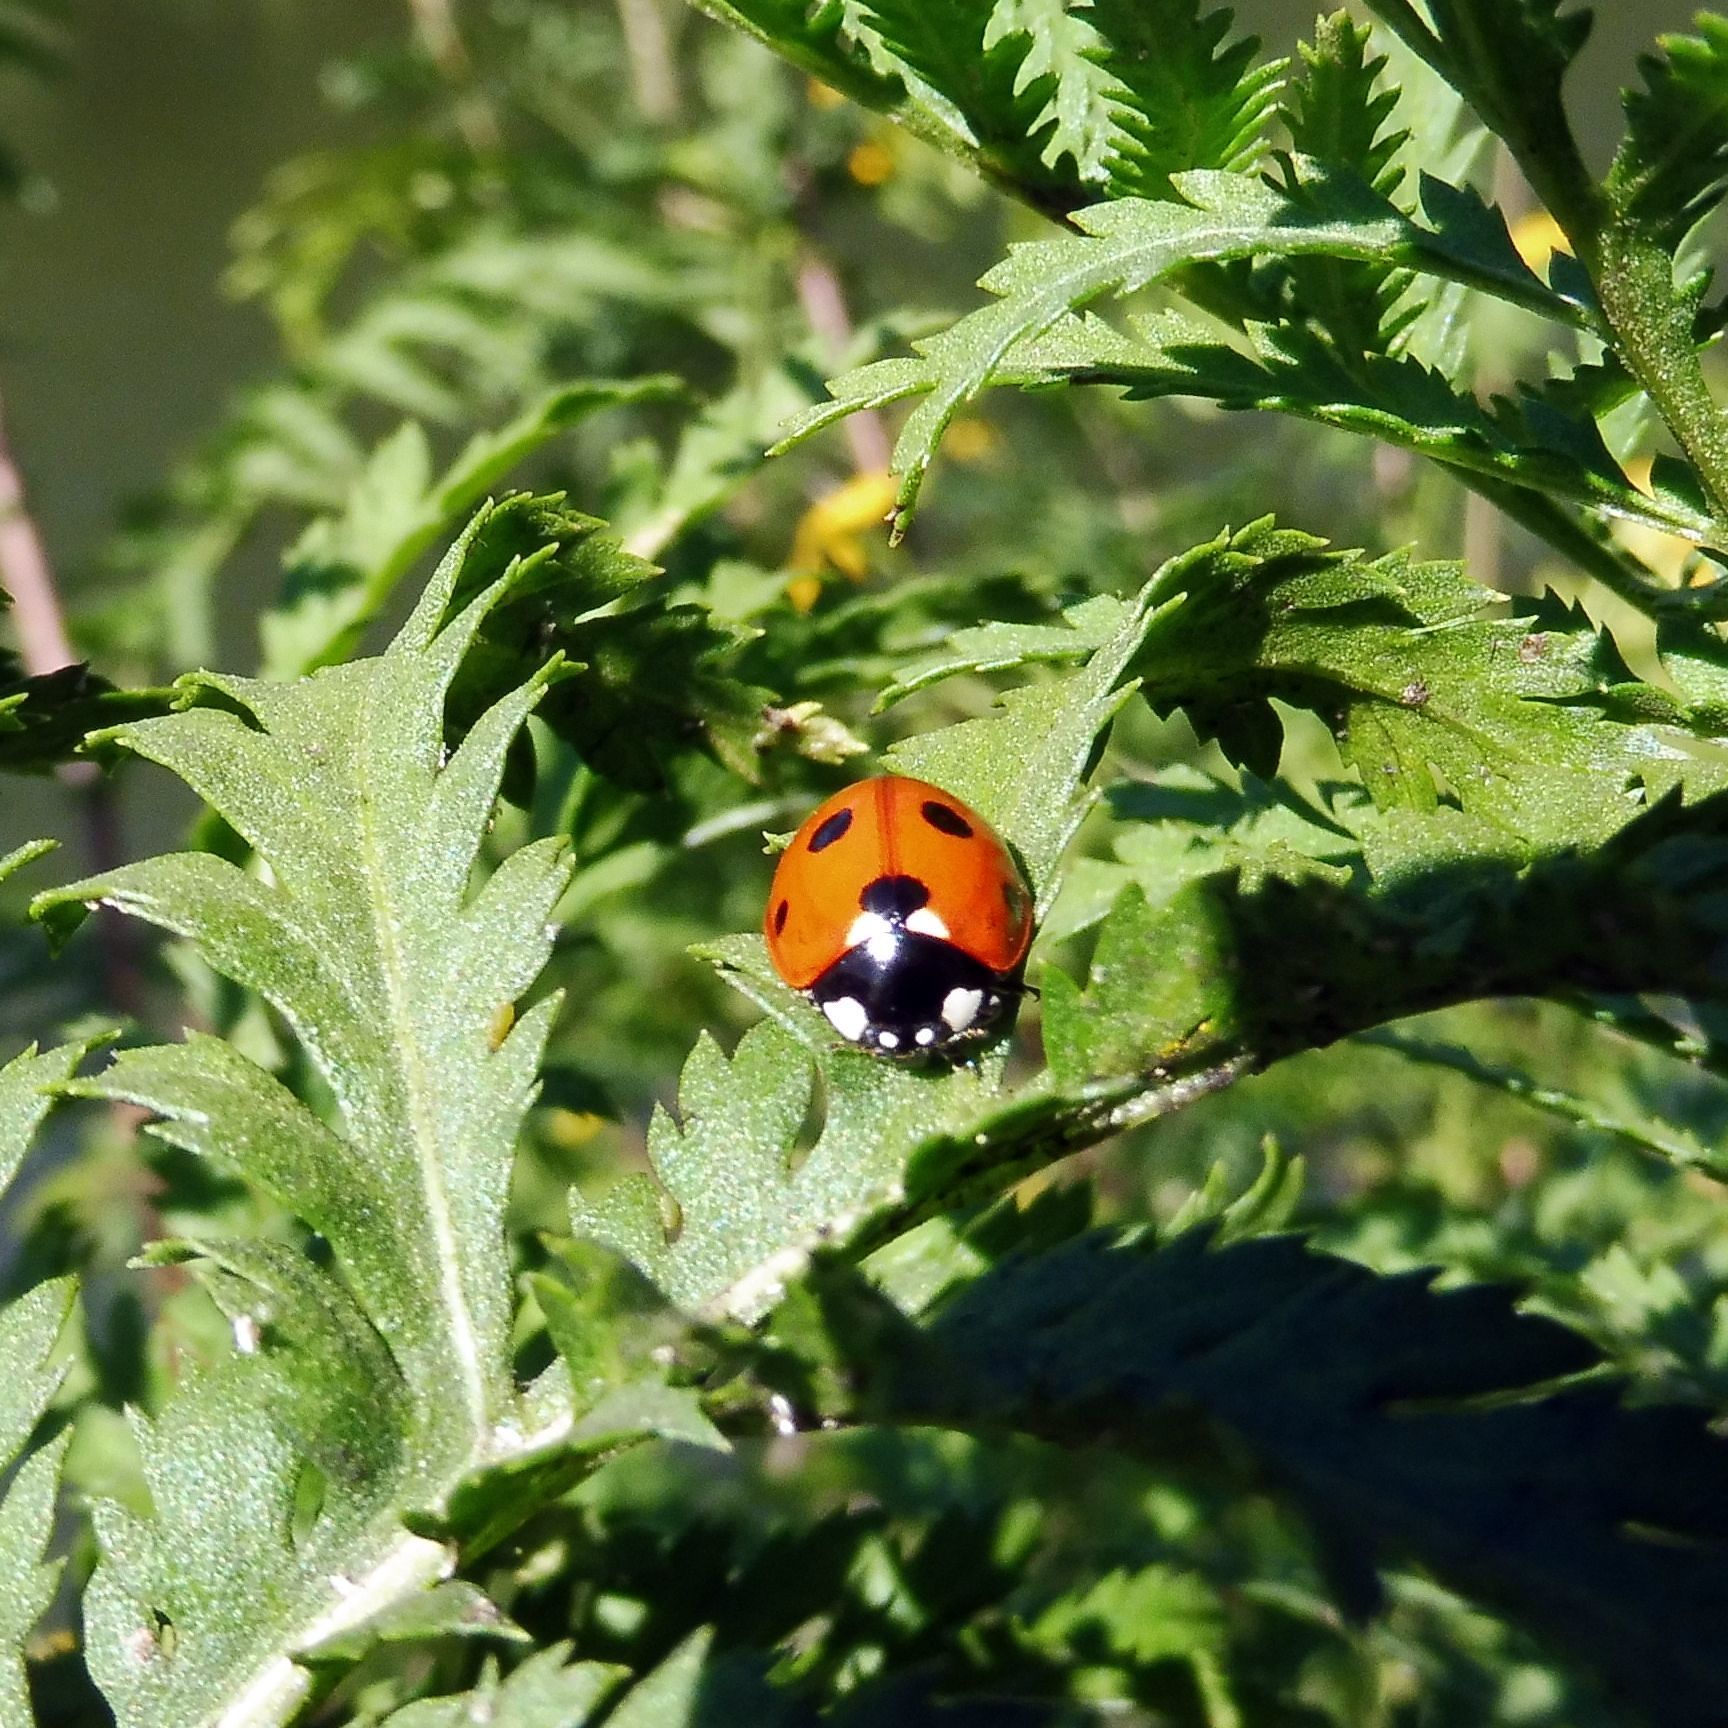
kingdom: Animalia
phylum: Arthropoda
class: Insecta
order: Coleoptera
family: Coccinellidae
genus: Coccinella
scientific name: Coccinella septempunctata
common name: Sevenspotted lady beetle
